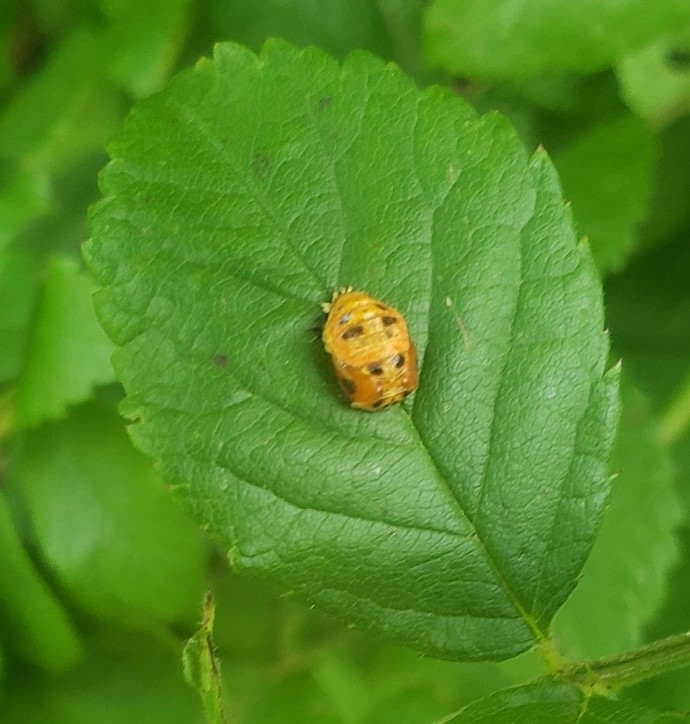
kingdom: Animalia
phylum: Arthropoda
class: Insecta
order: Coleoptera
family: Coccinellidae
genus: Harmonia
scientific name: Harmonia axyridis
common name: Harlequin ladybird
